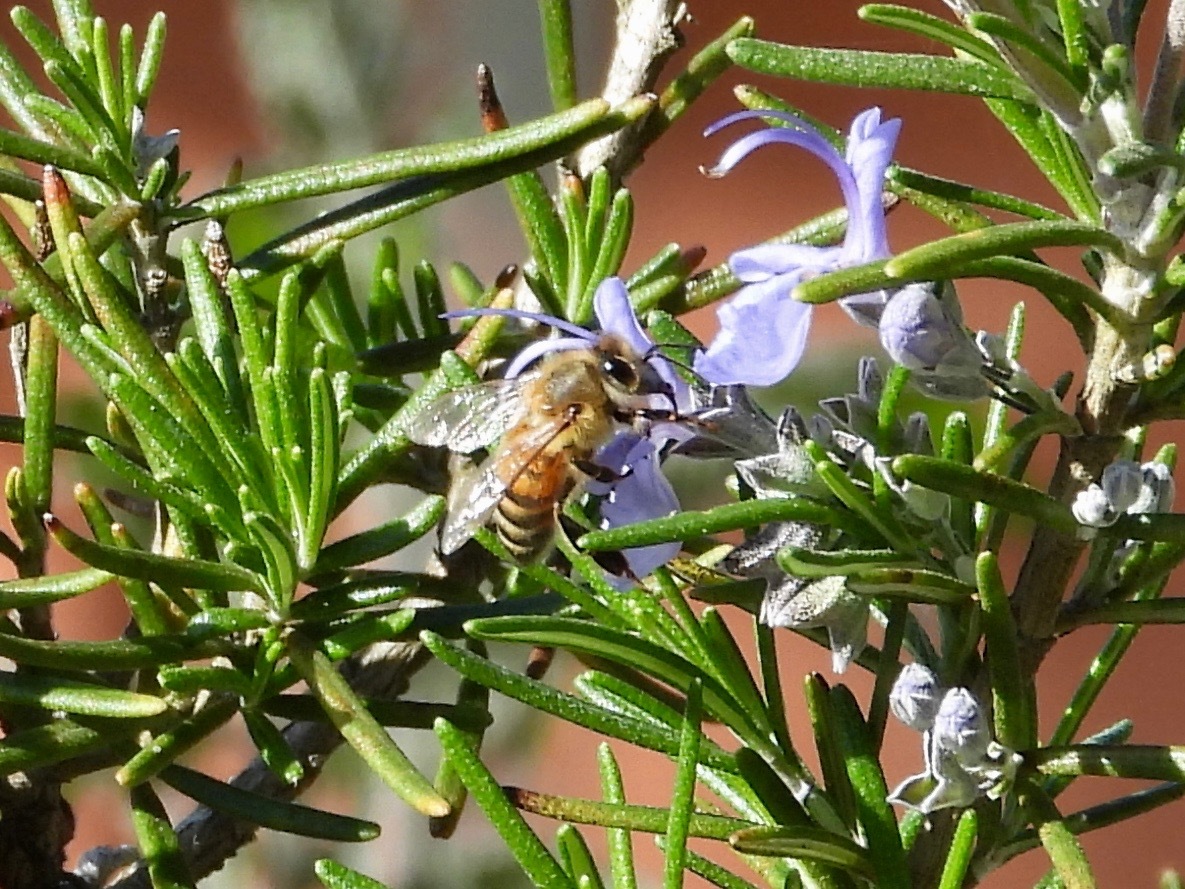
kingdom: Animalia
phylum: Arthropoda
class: Insecta
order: Hymenoptera
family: Apidae
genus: Apis
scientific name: Apis mellifera
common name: Honey bee
